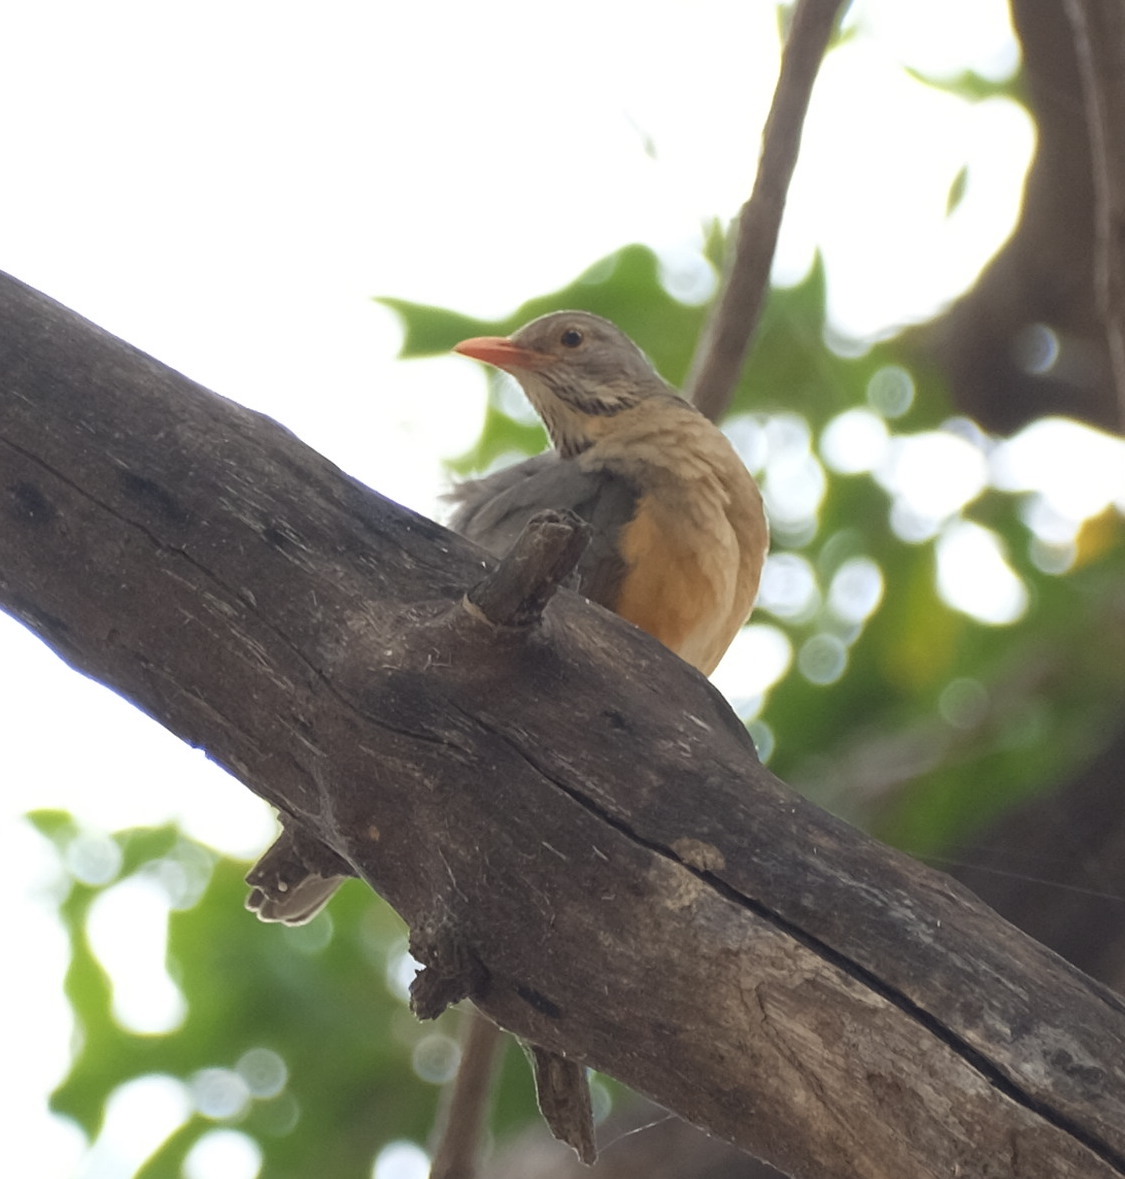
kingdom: Animalia
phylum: Chordata
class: Aves
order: Passeriformes
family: Turdidae
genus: Turdus
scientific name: Turdus libonyana
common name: Kurrichane thrush
